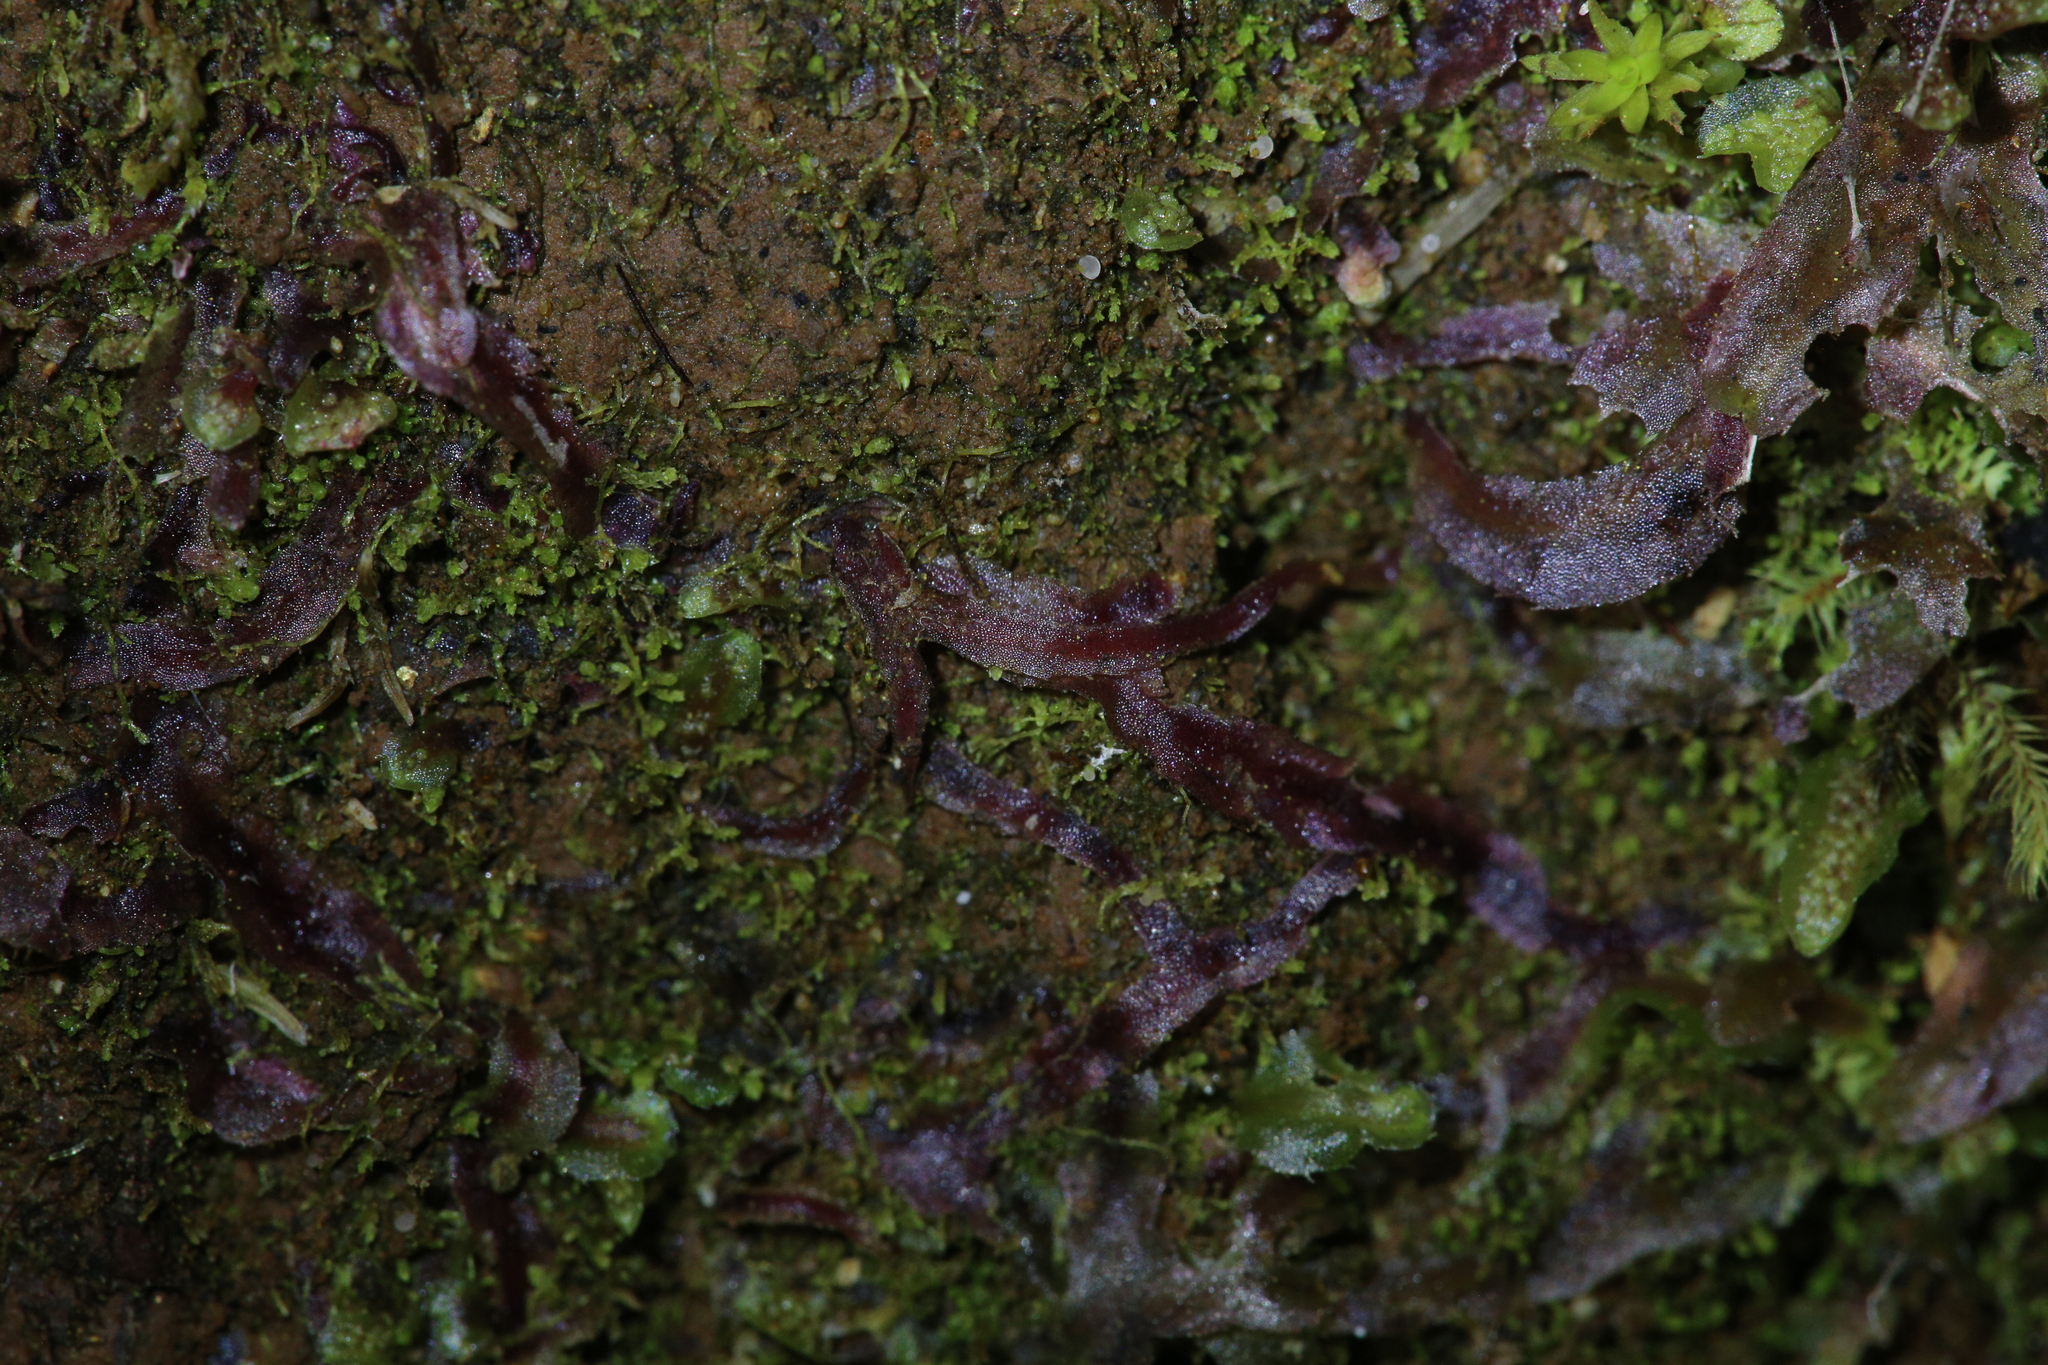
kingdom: Plantae
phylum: Marchantiophyta
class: Jungermanniopsida
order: Pallaviciniales
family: Pallaviciniaceae
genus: Symphyogyna
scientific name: Symphyogyna podophylla
